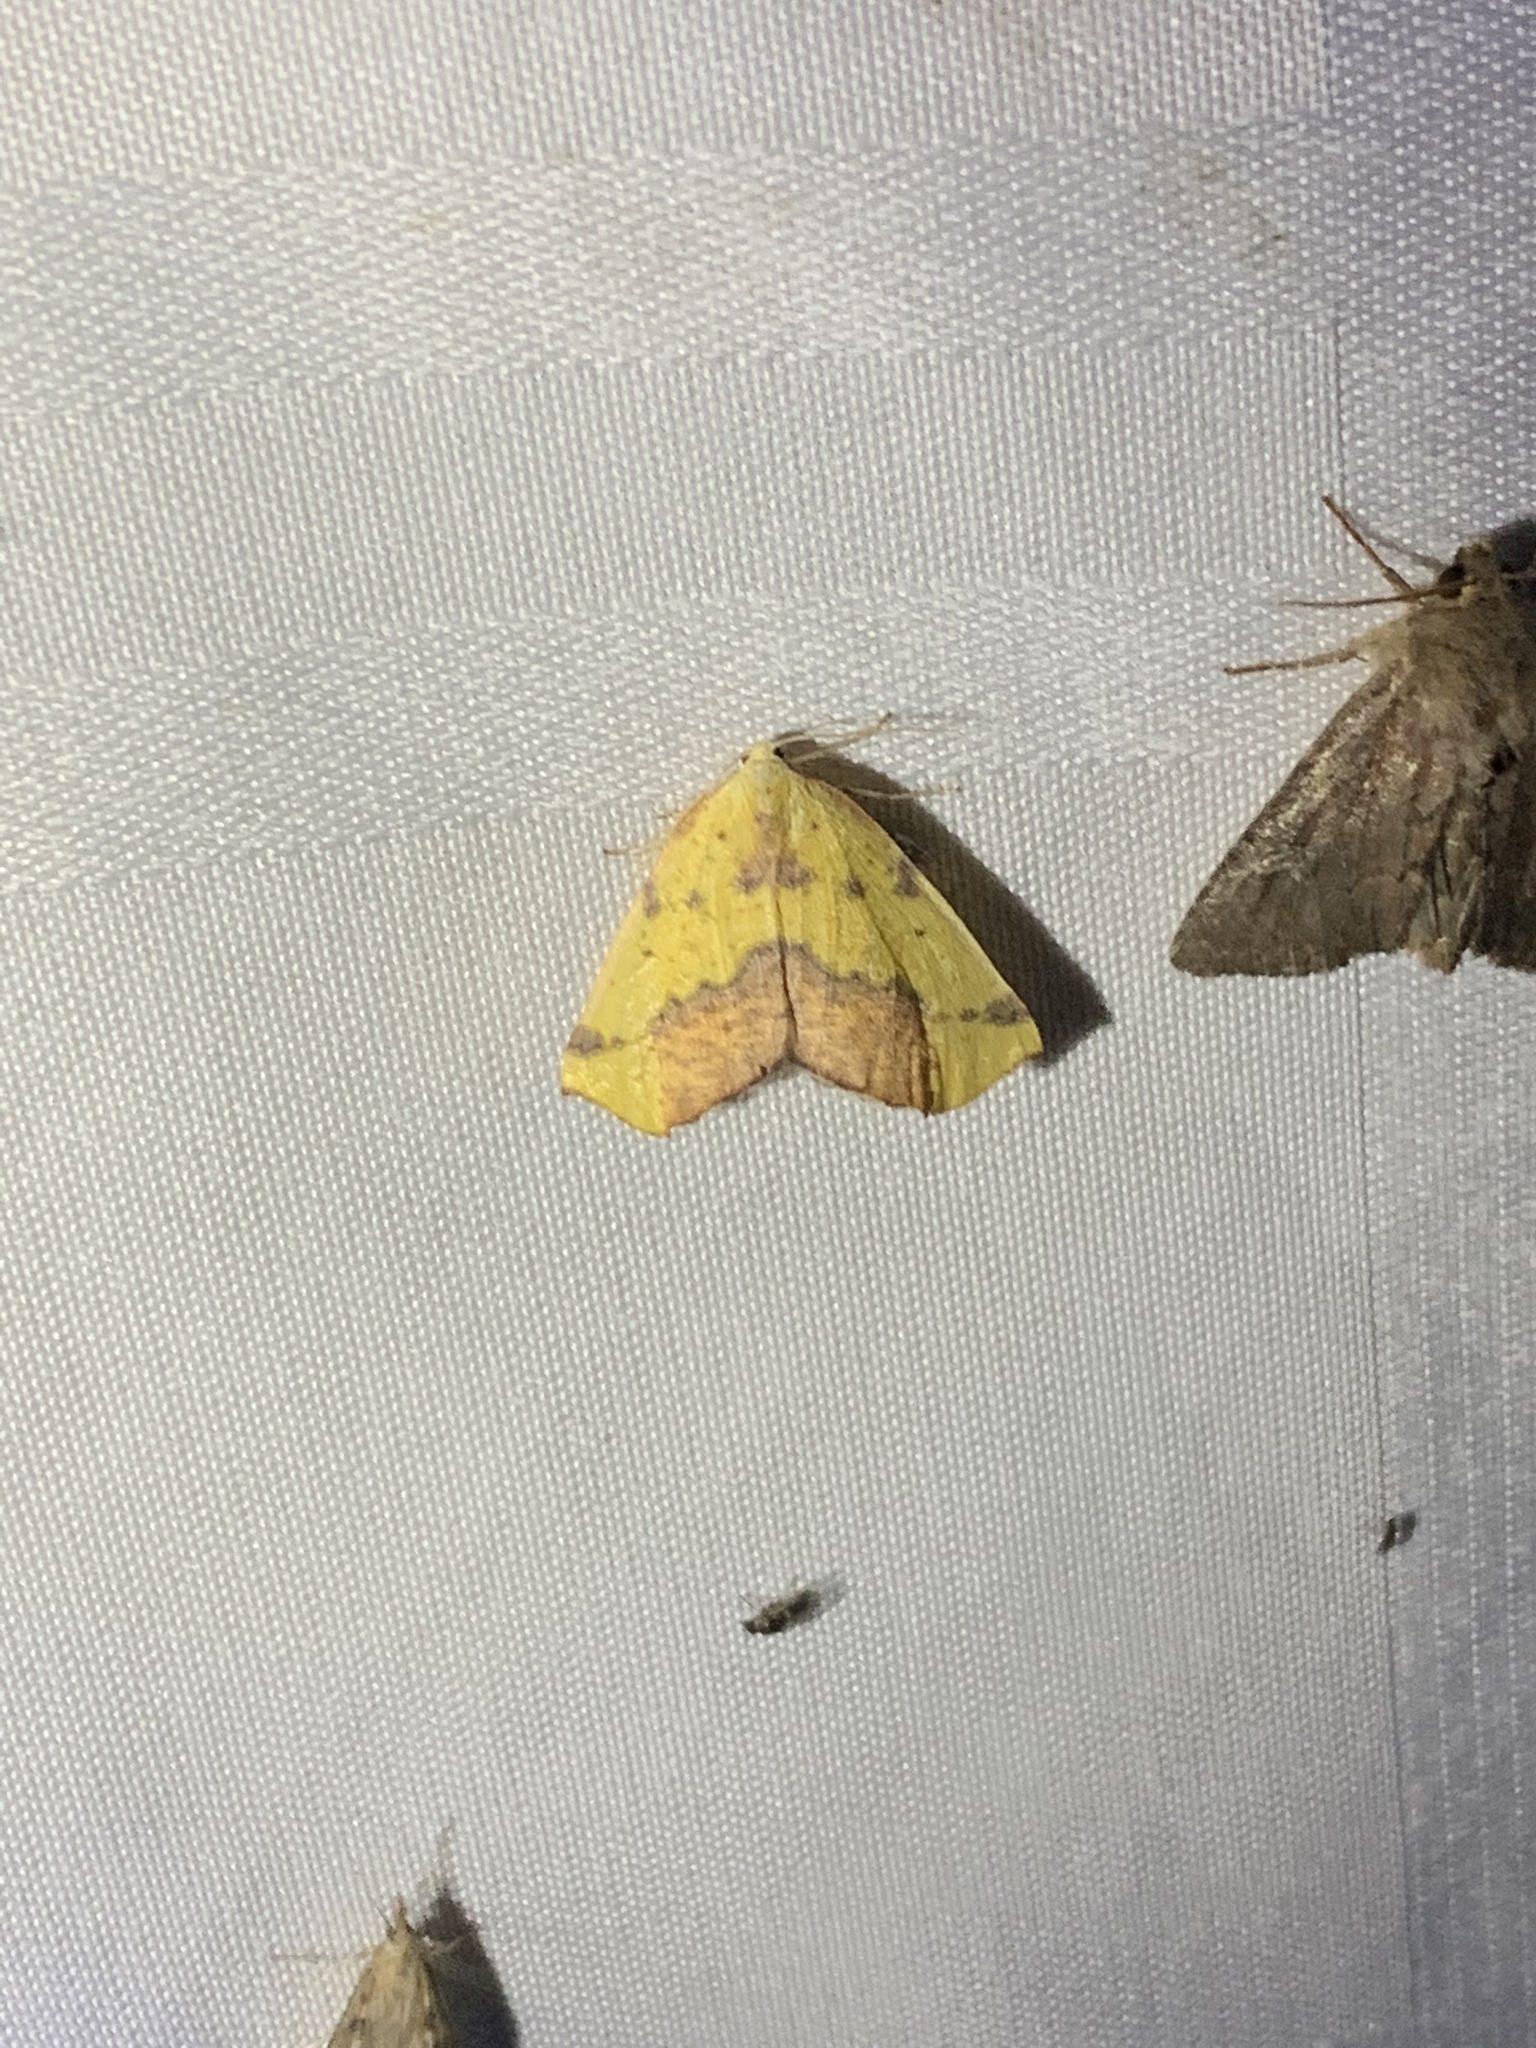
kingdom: Animalia
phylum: Arthropoda
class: Insecta
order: Lepidoptera
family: Geometridae
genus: Sicya
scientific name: Sicya macularia
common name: Sharp-lined yellow
